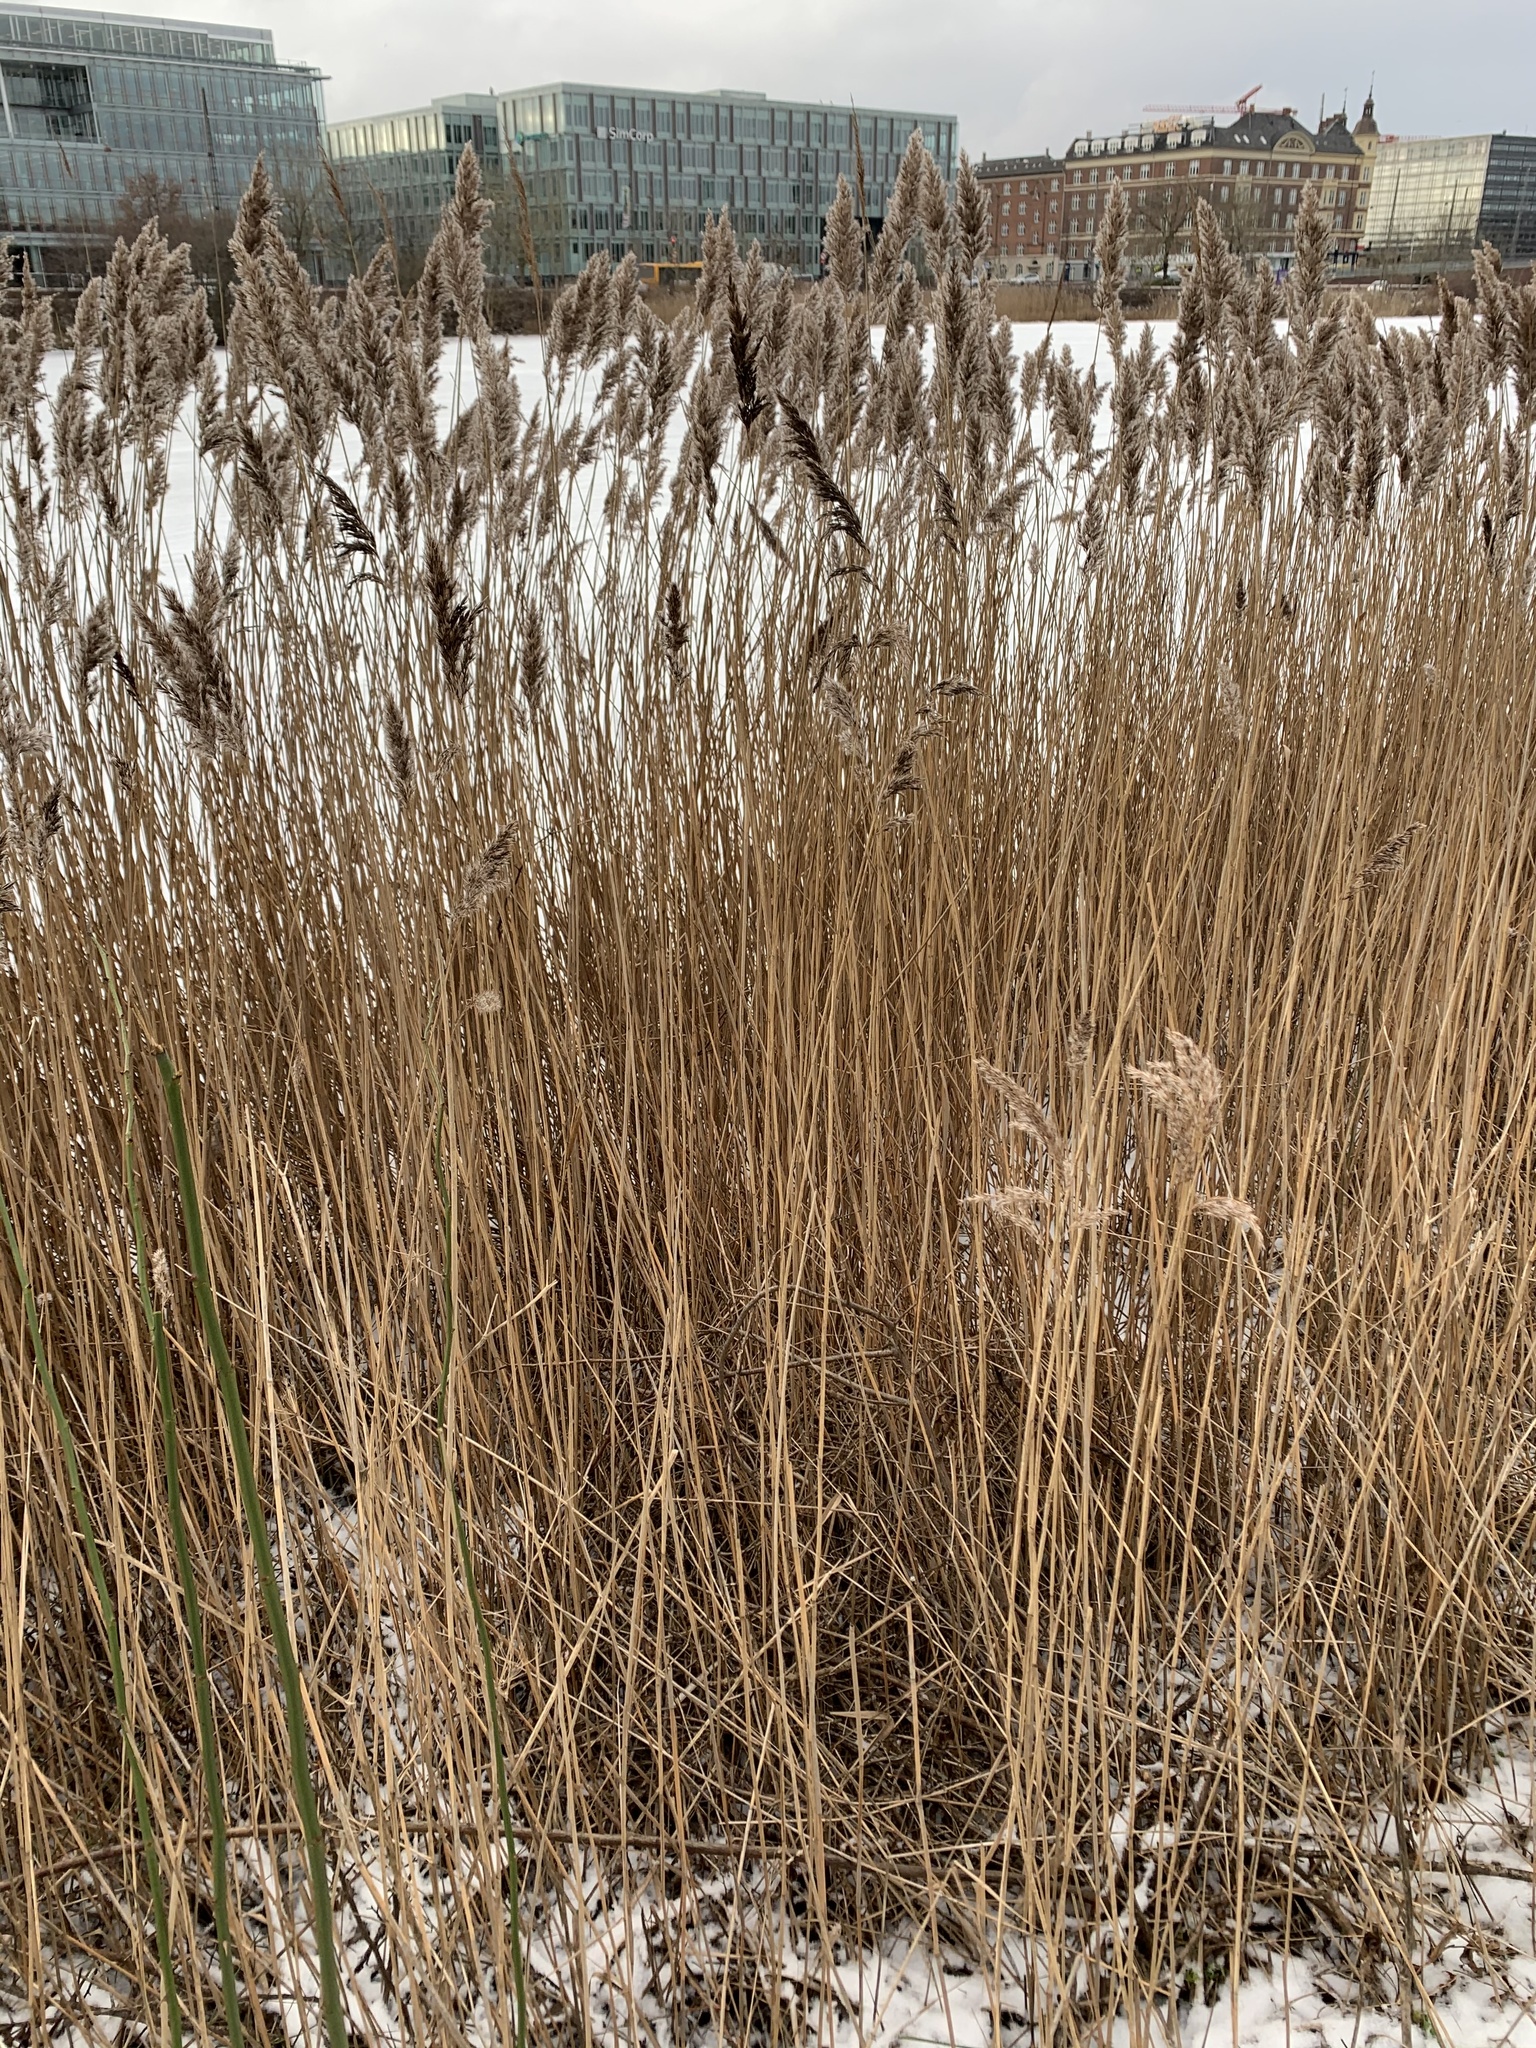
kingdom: Plantae
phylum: Tracheophyta
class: Liliopsida
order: Poales
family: Poaceae
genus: Phragmites
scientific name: Phragmites australis
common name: Common reed
